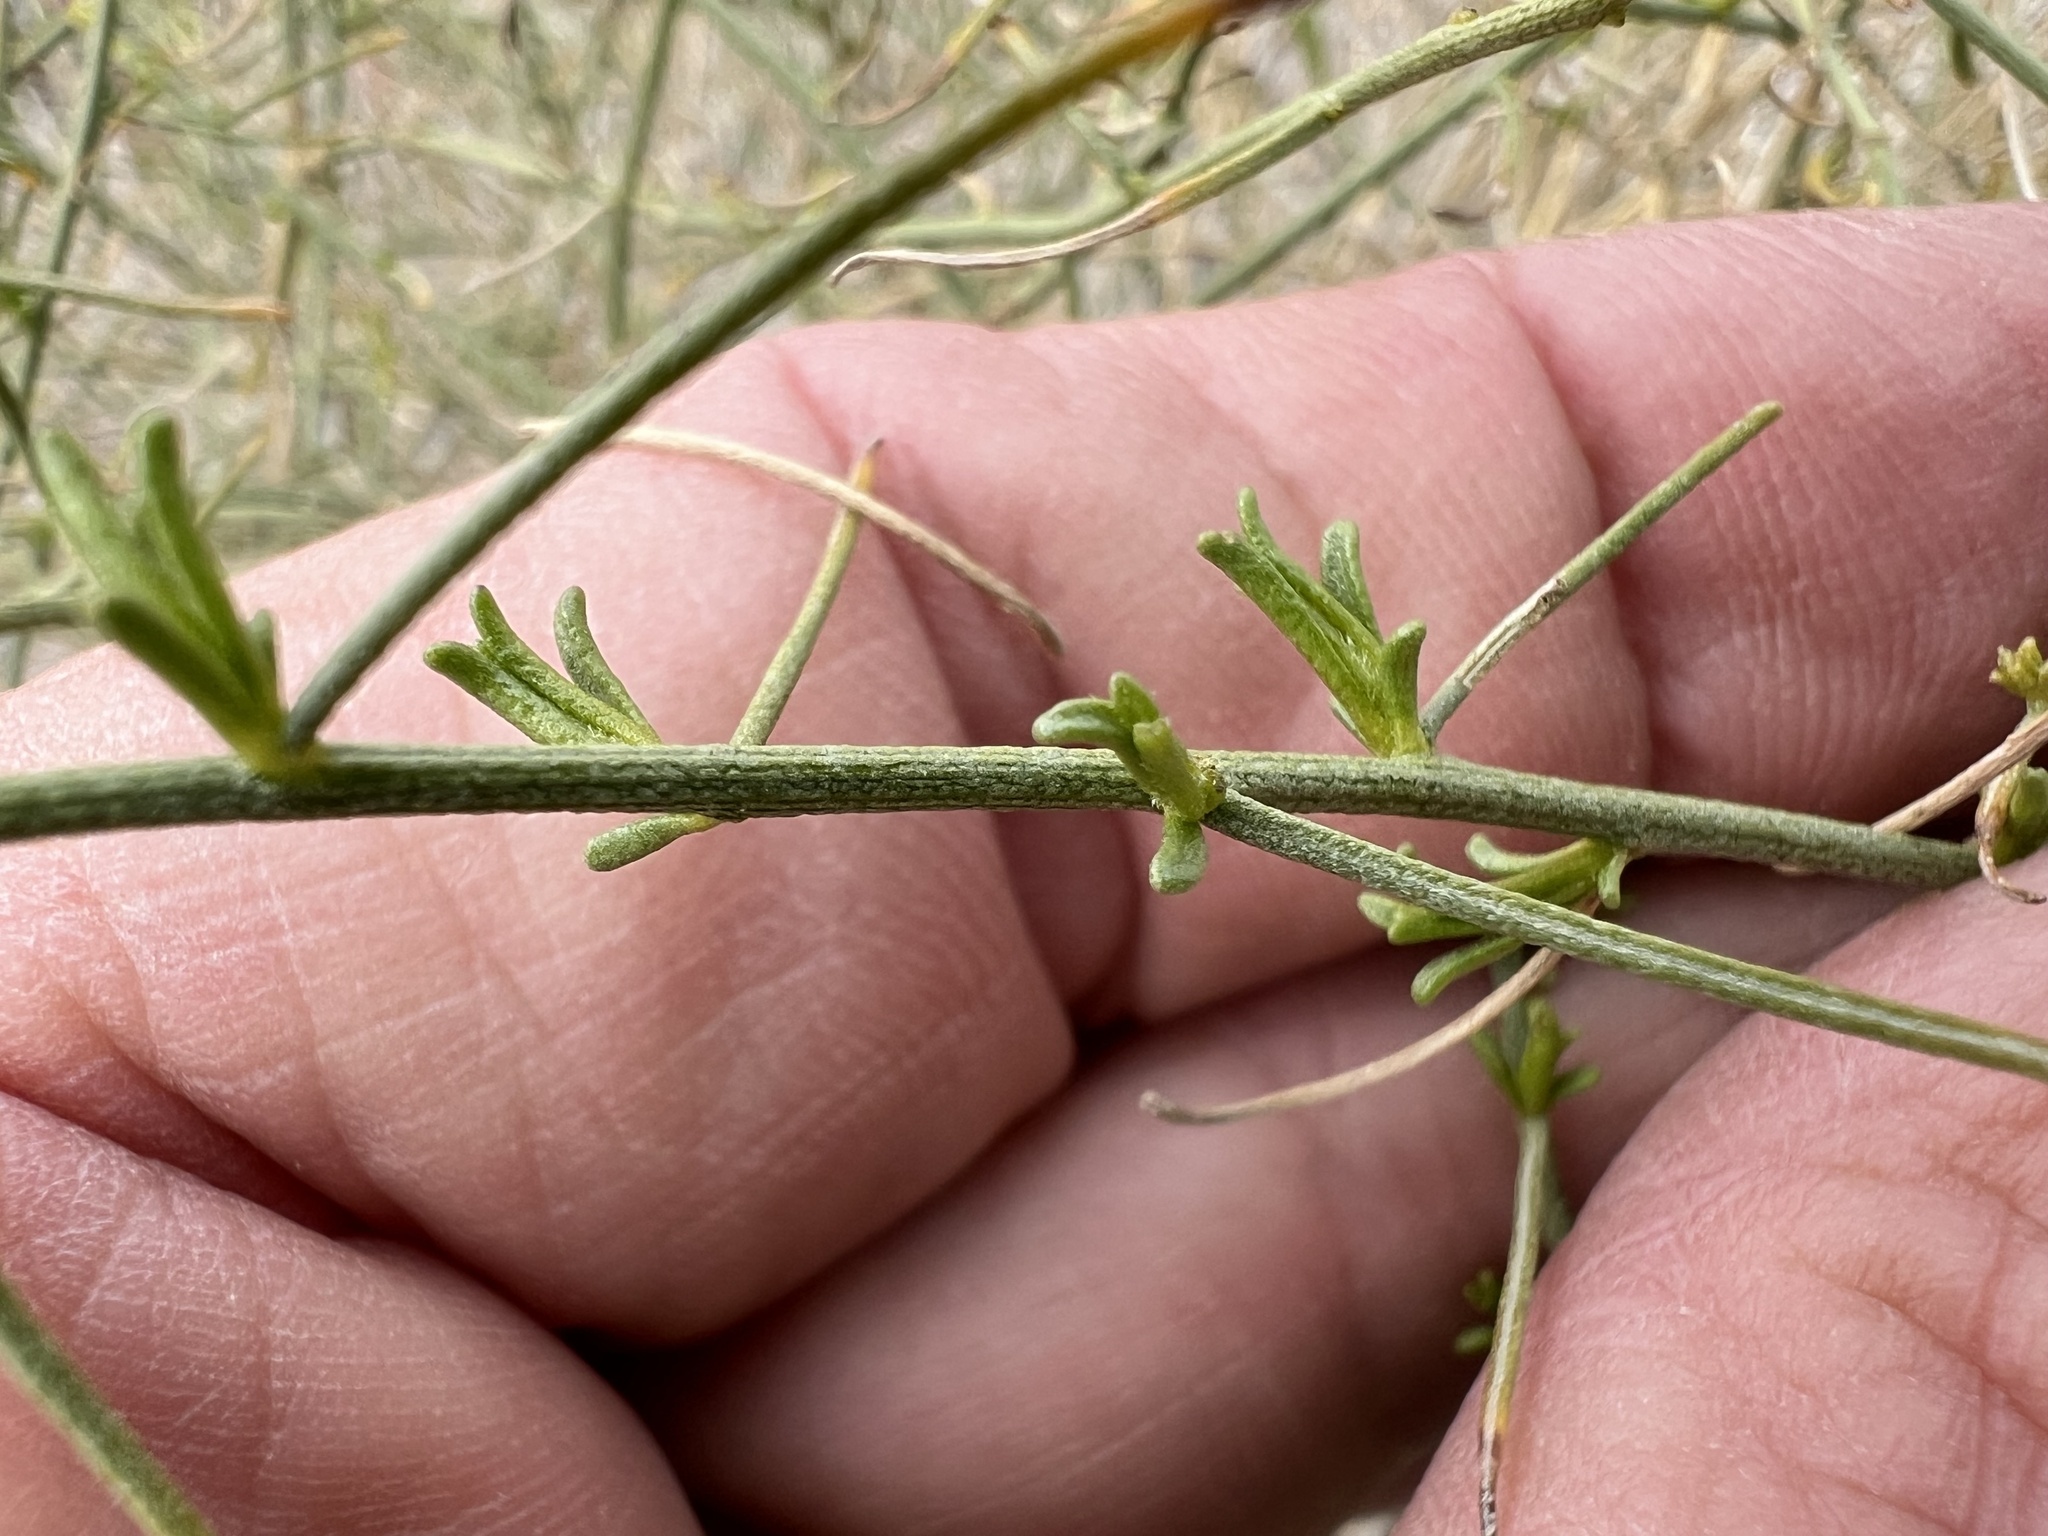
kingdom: Plantae
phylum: Tracheophyta
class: Magnoliopsida
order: Asterales
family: Asteraceae
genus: Ambrosia
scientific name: Ambrosia salsola
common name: Burrobrush
